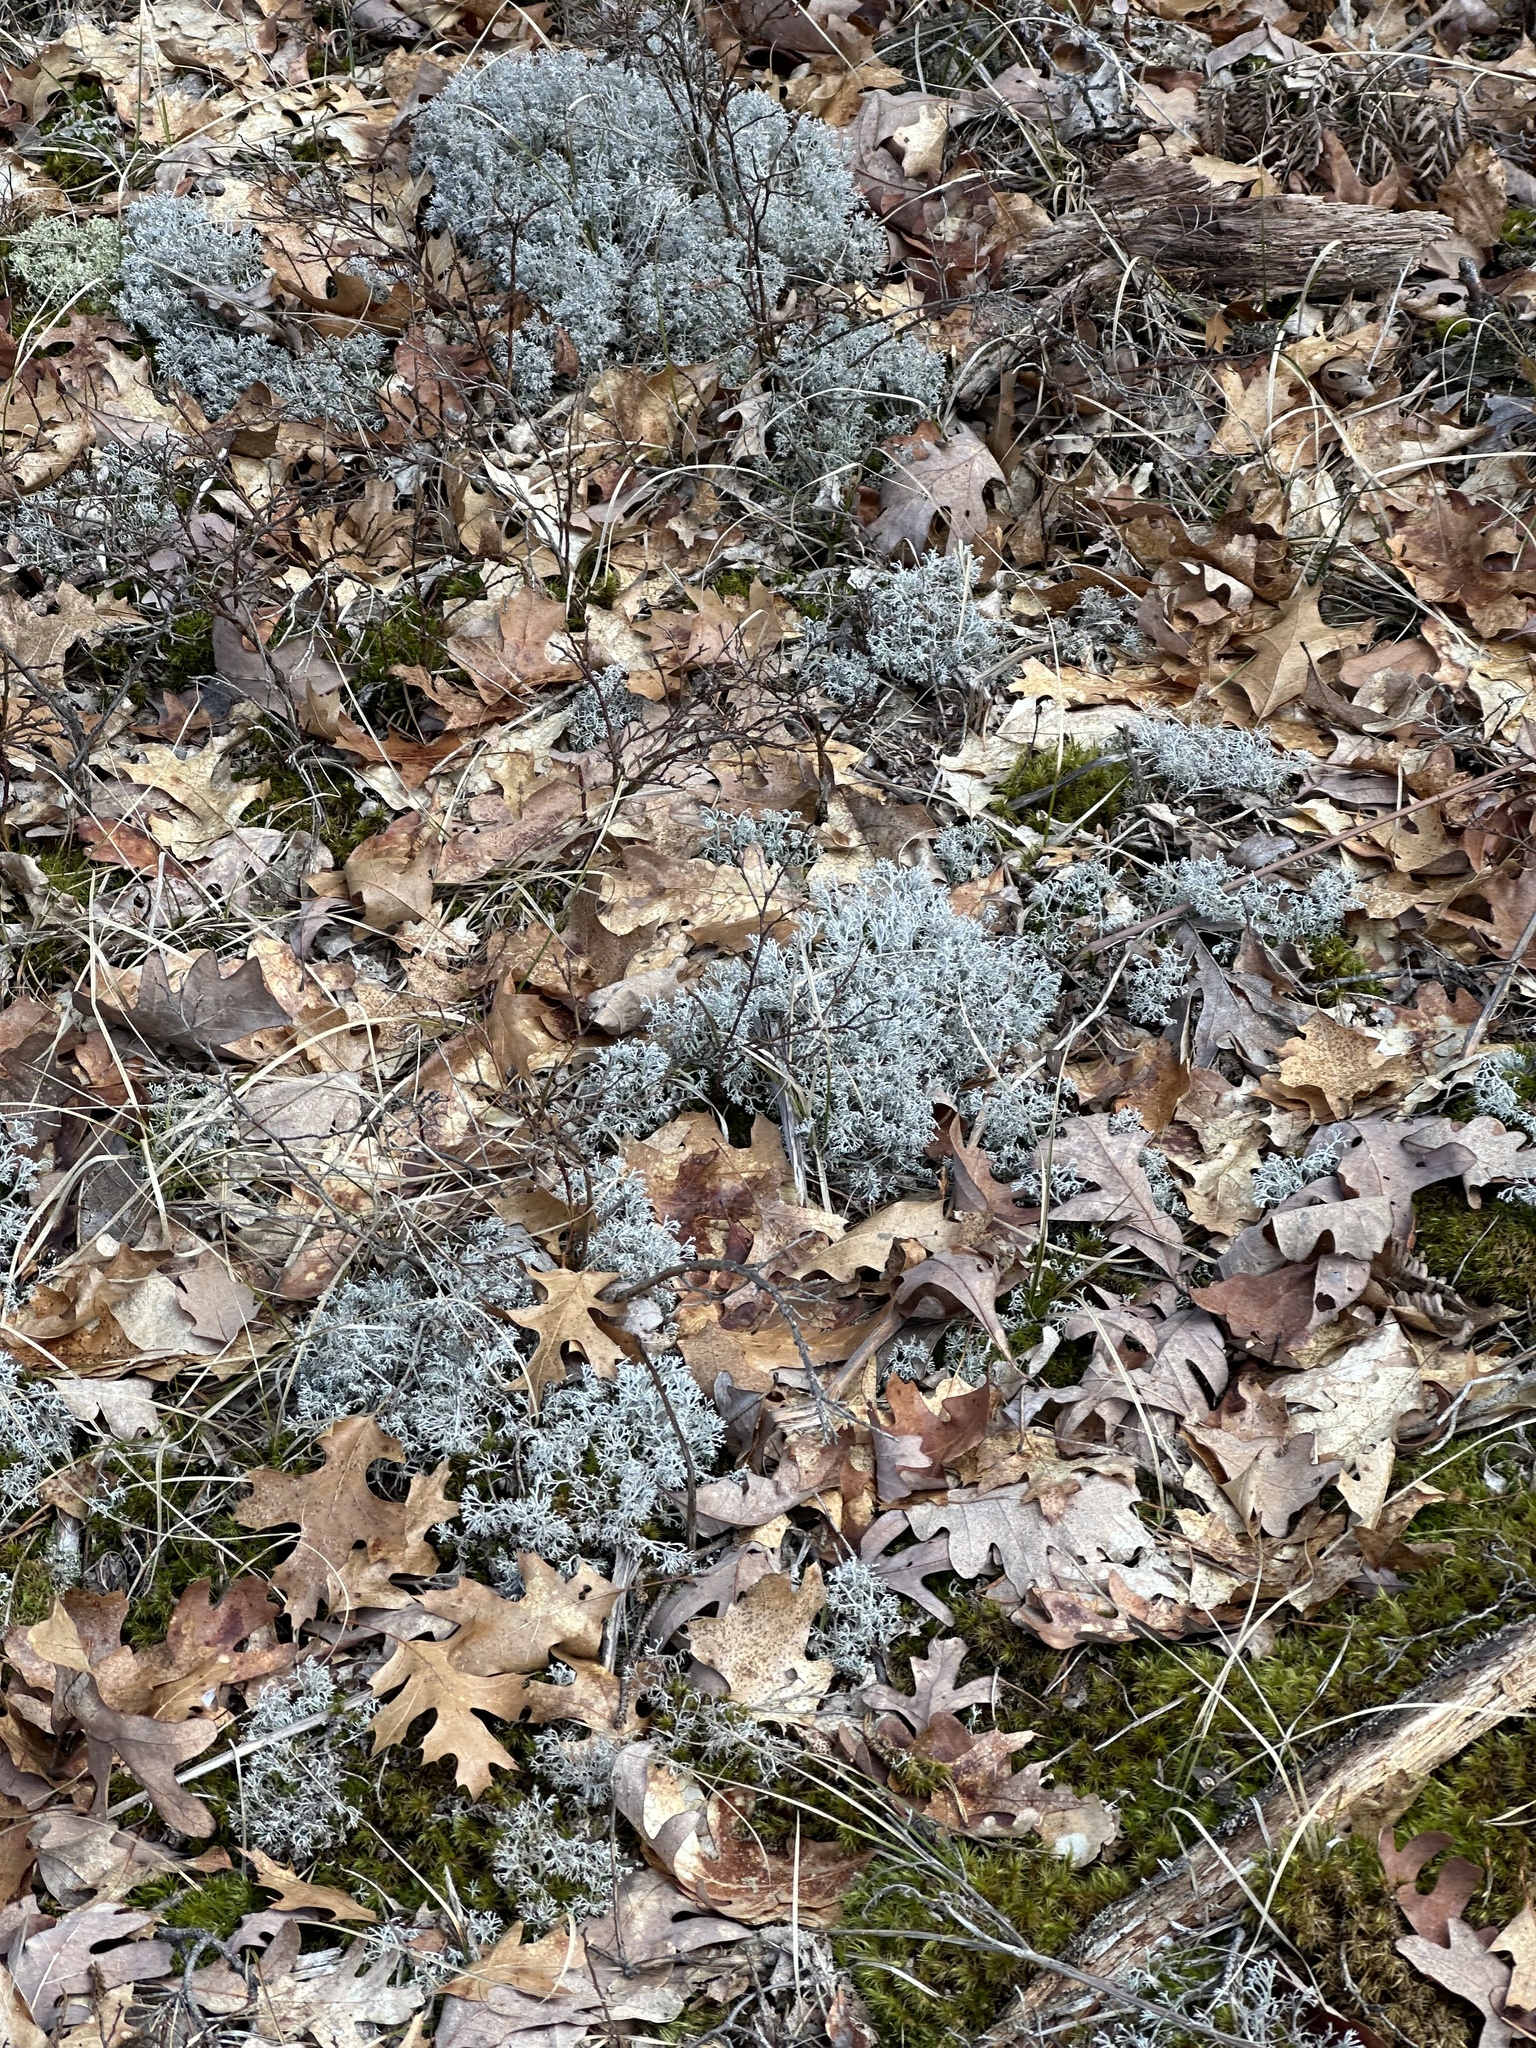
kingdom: Fungi
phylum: Ascomycota
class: Lecanoromycetes
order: Lecanorales
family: Cladoniaceae
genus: Cladonia
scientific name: Cladonia rangiferina
